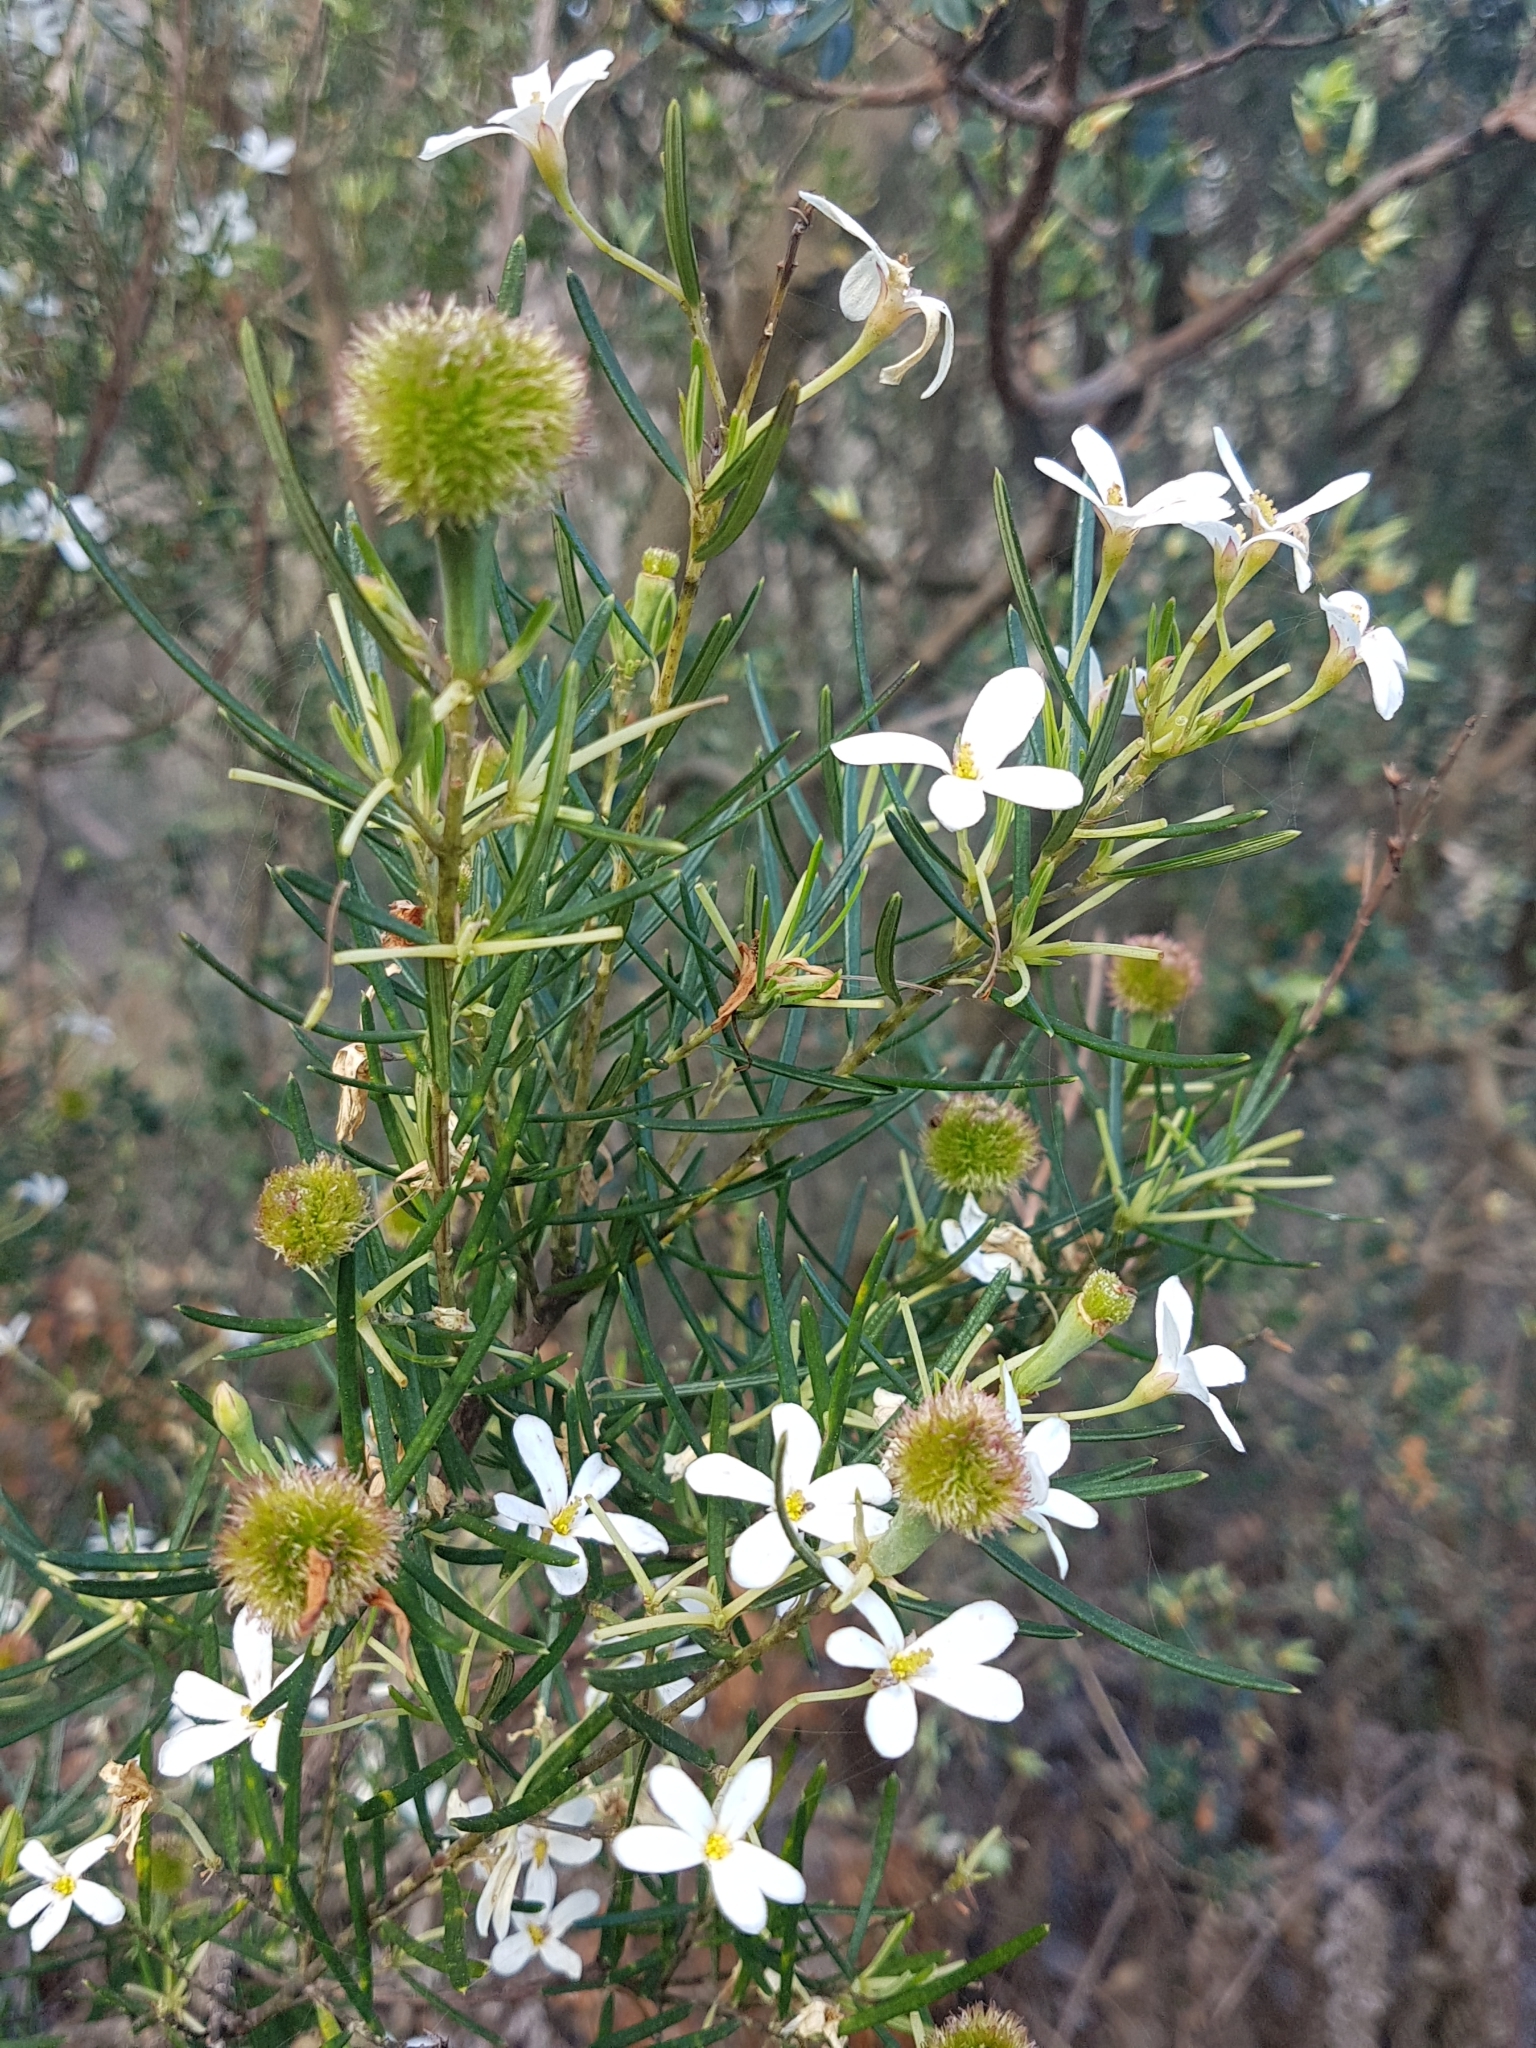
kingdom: Plantae
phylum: Tracheophyta
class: Magnoliopsida
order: Malpighiales
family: Euphorbiaceae
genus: Ricinocarpos
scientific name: Ricinocarpos pinifolius
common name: Weddingbush
